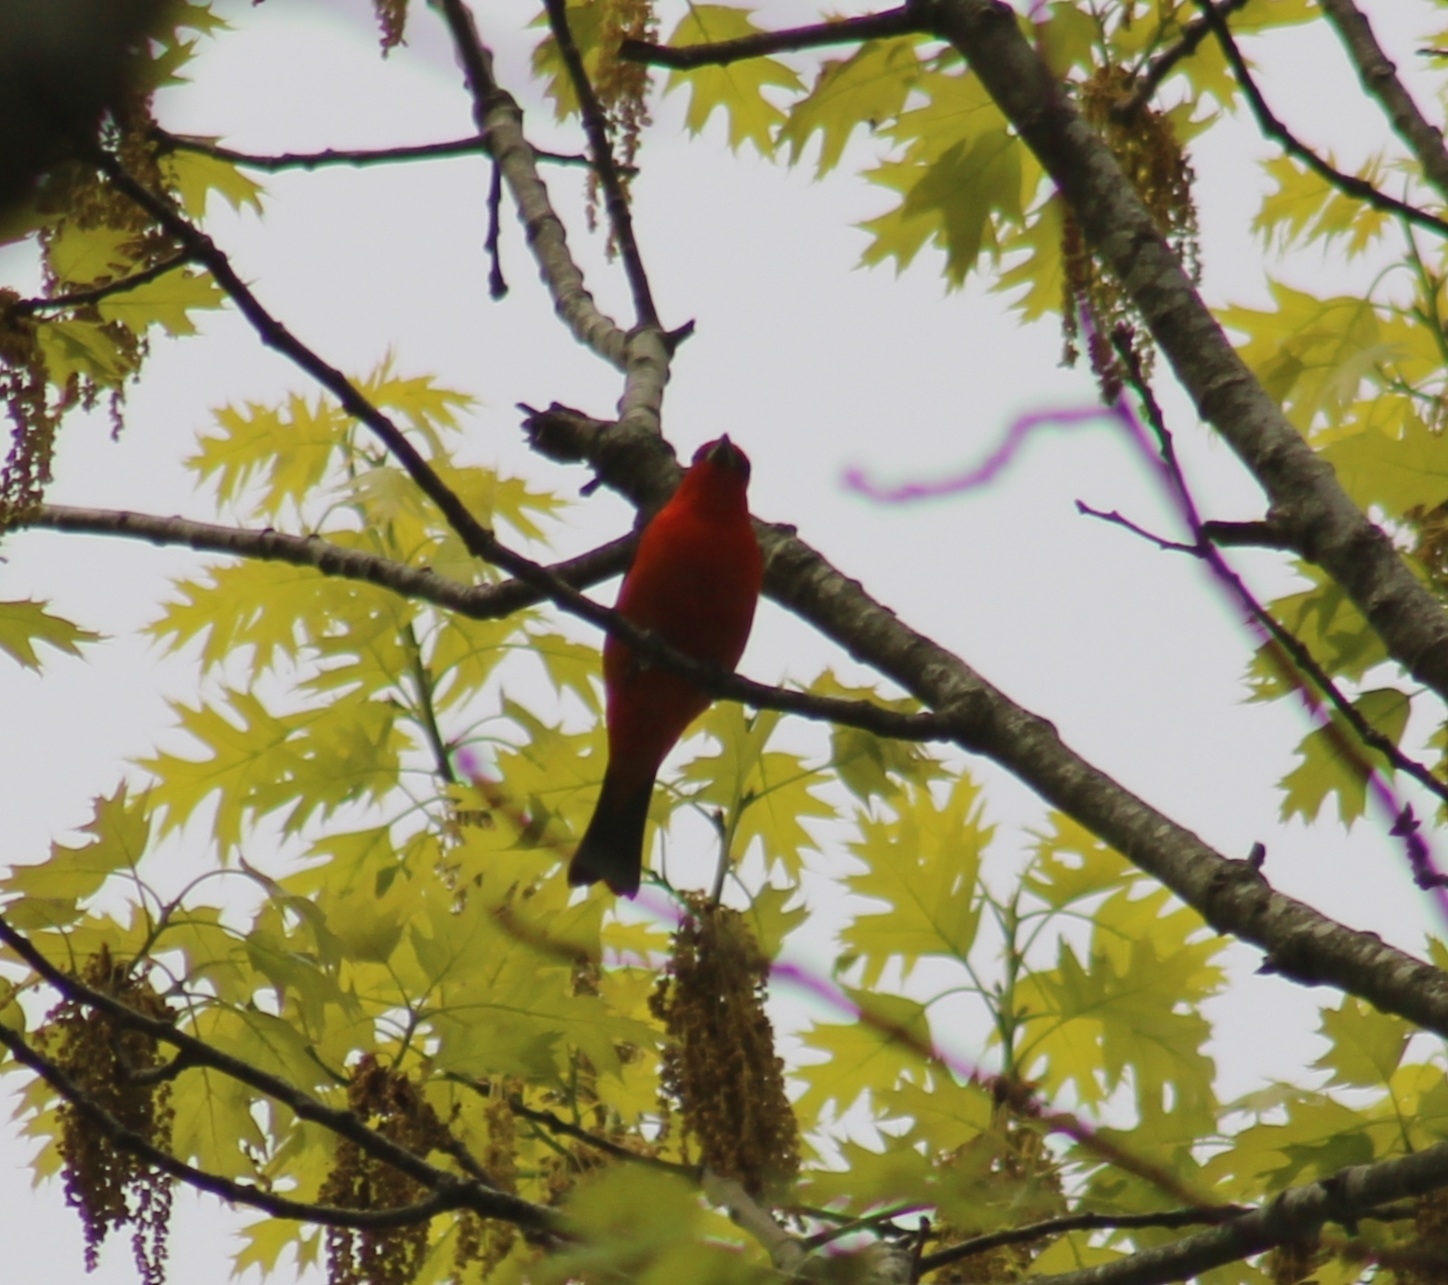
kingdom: Animalia
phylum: Chordata
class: Aves
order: Passeriformes
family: Cardinalidae
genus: Piranga
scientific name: Piranga olivacea
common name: Scarlet tanager
